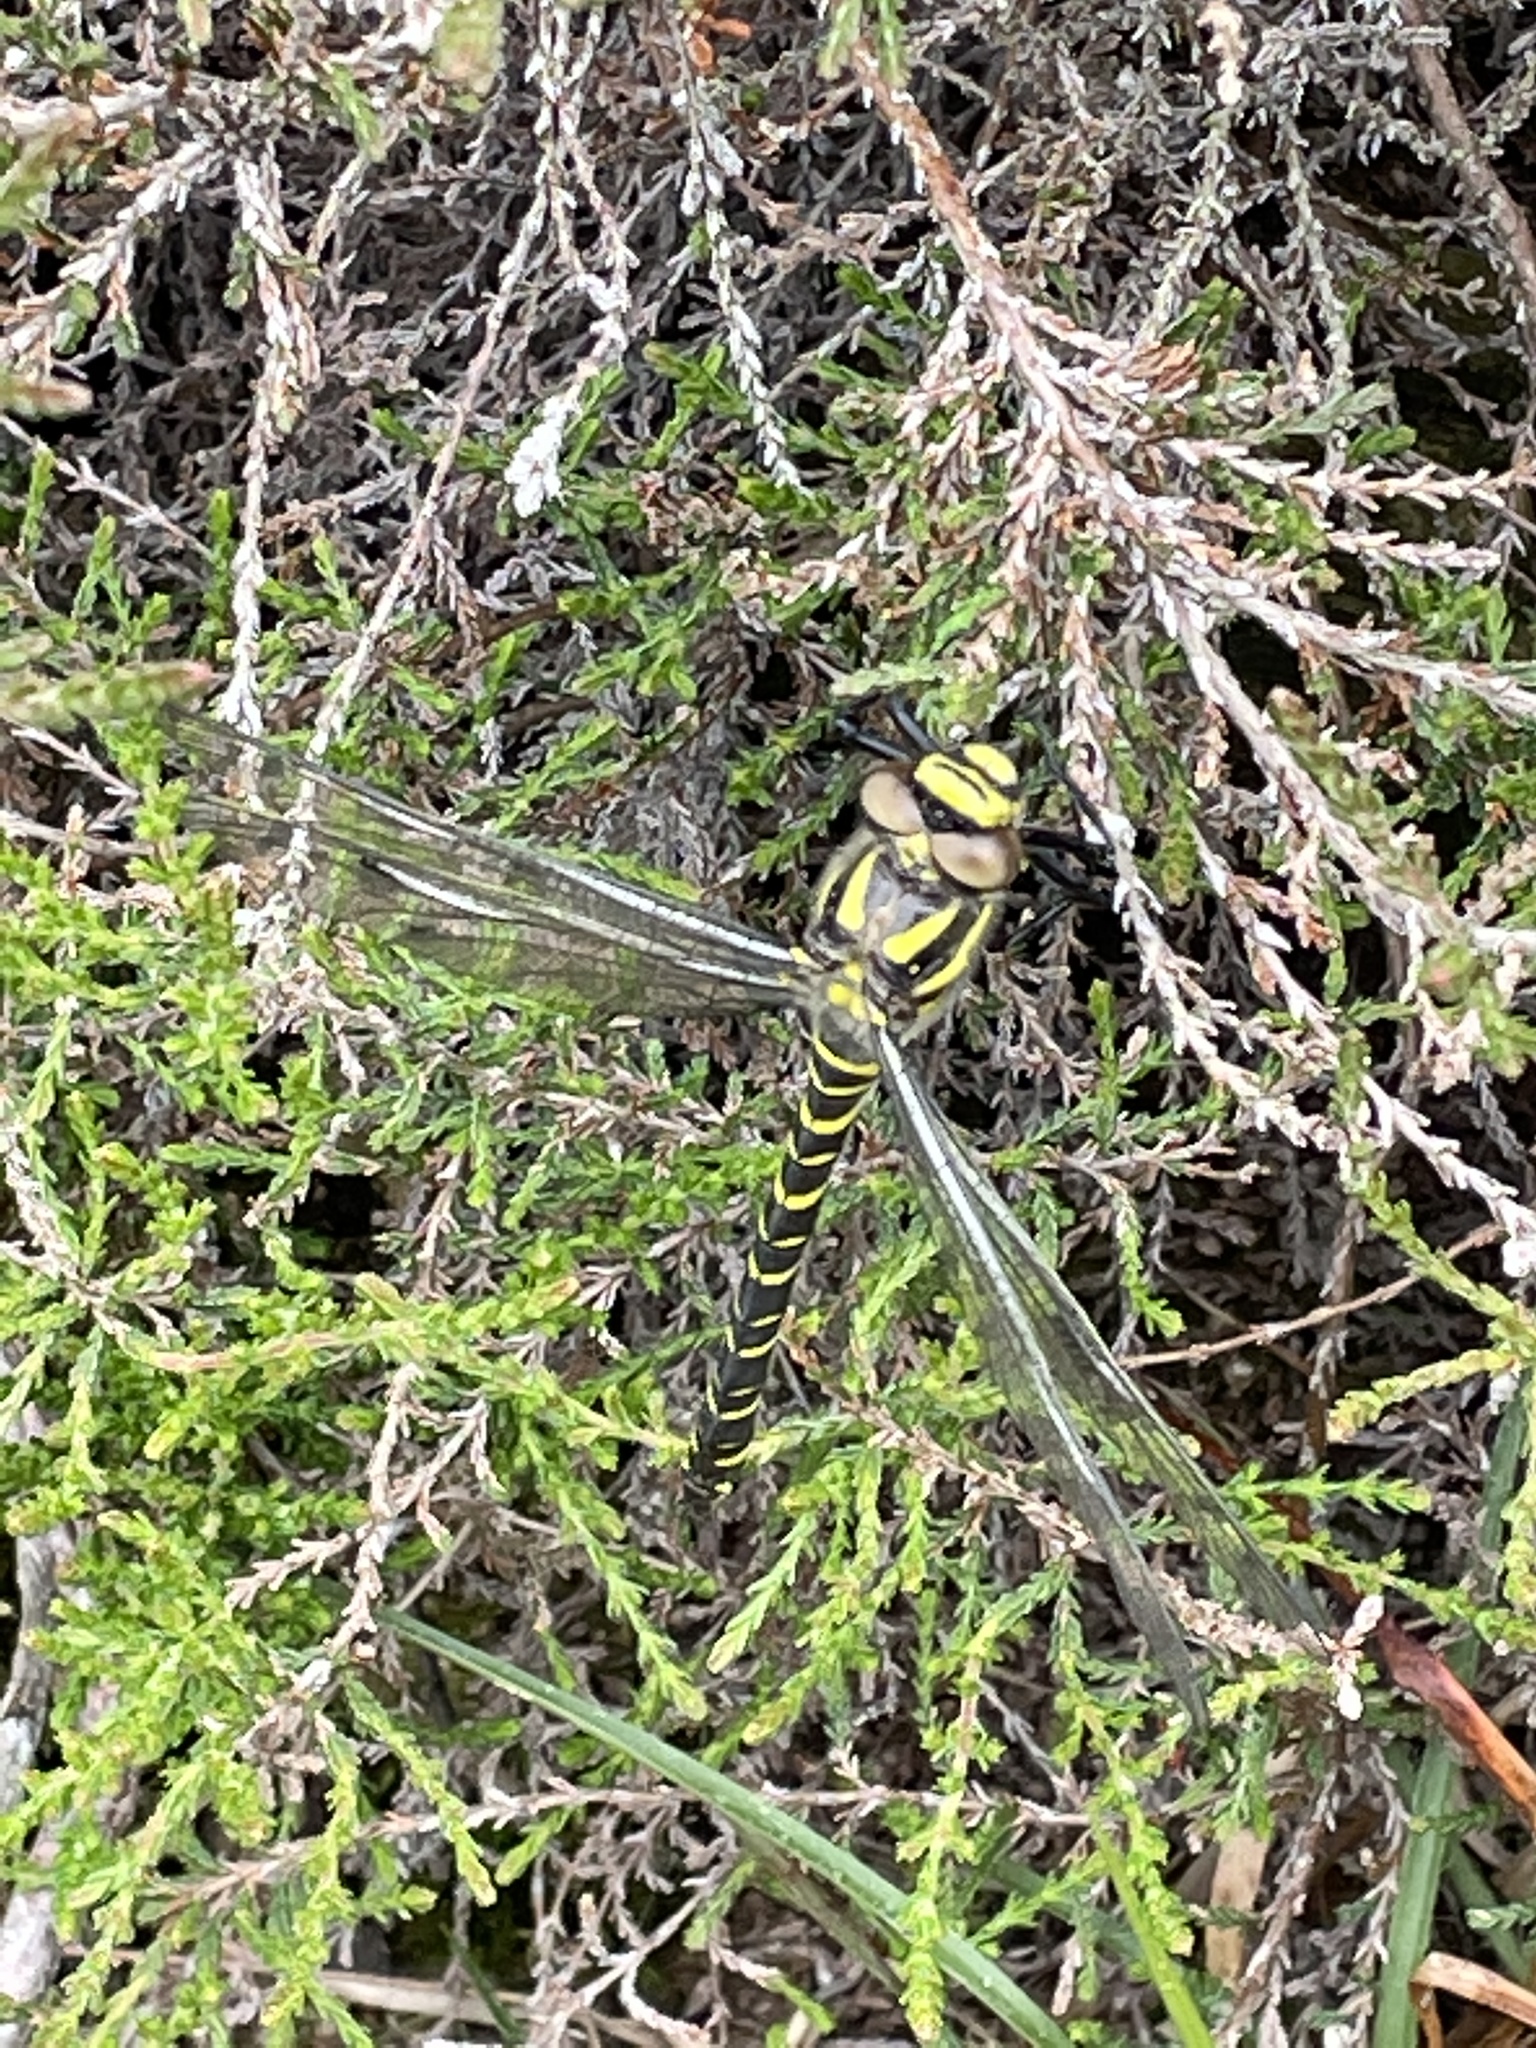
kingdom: Animalia
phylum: Arthropoda
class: Insecta
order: Odonata
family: Cordulegastridae
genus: Cordulegaster
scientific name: Cordulegaster boltonii
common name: Golden-ringed dragonfly
